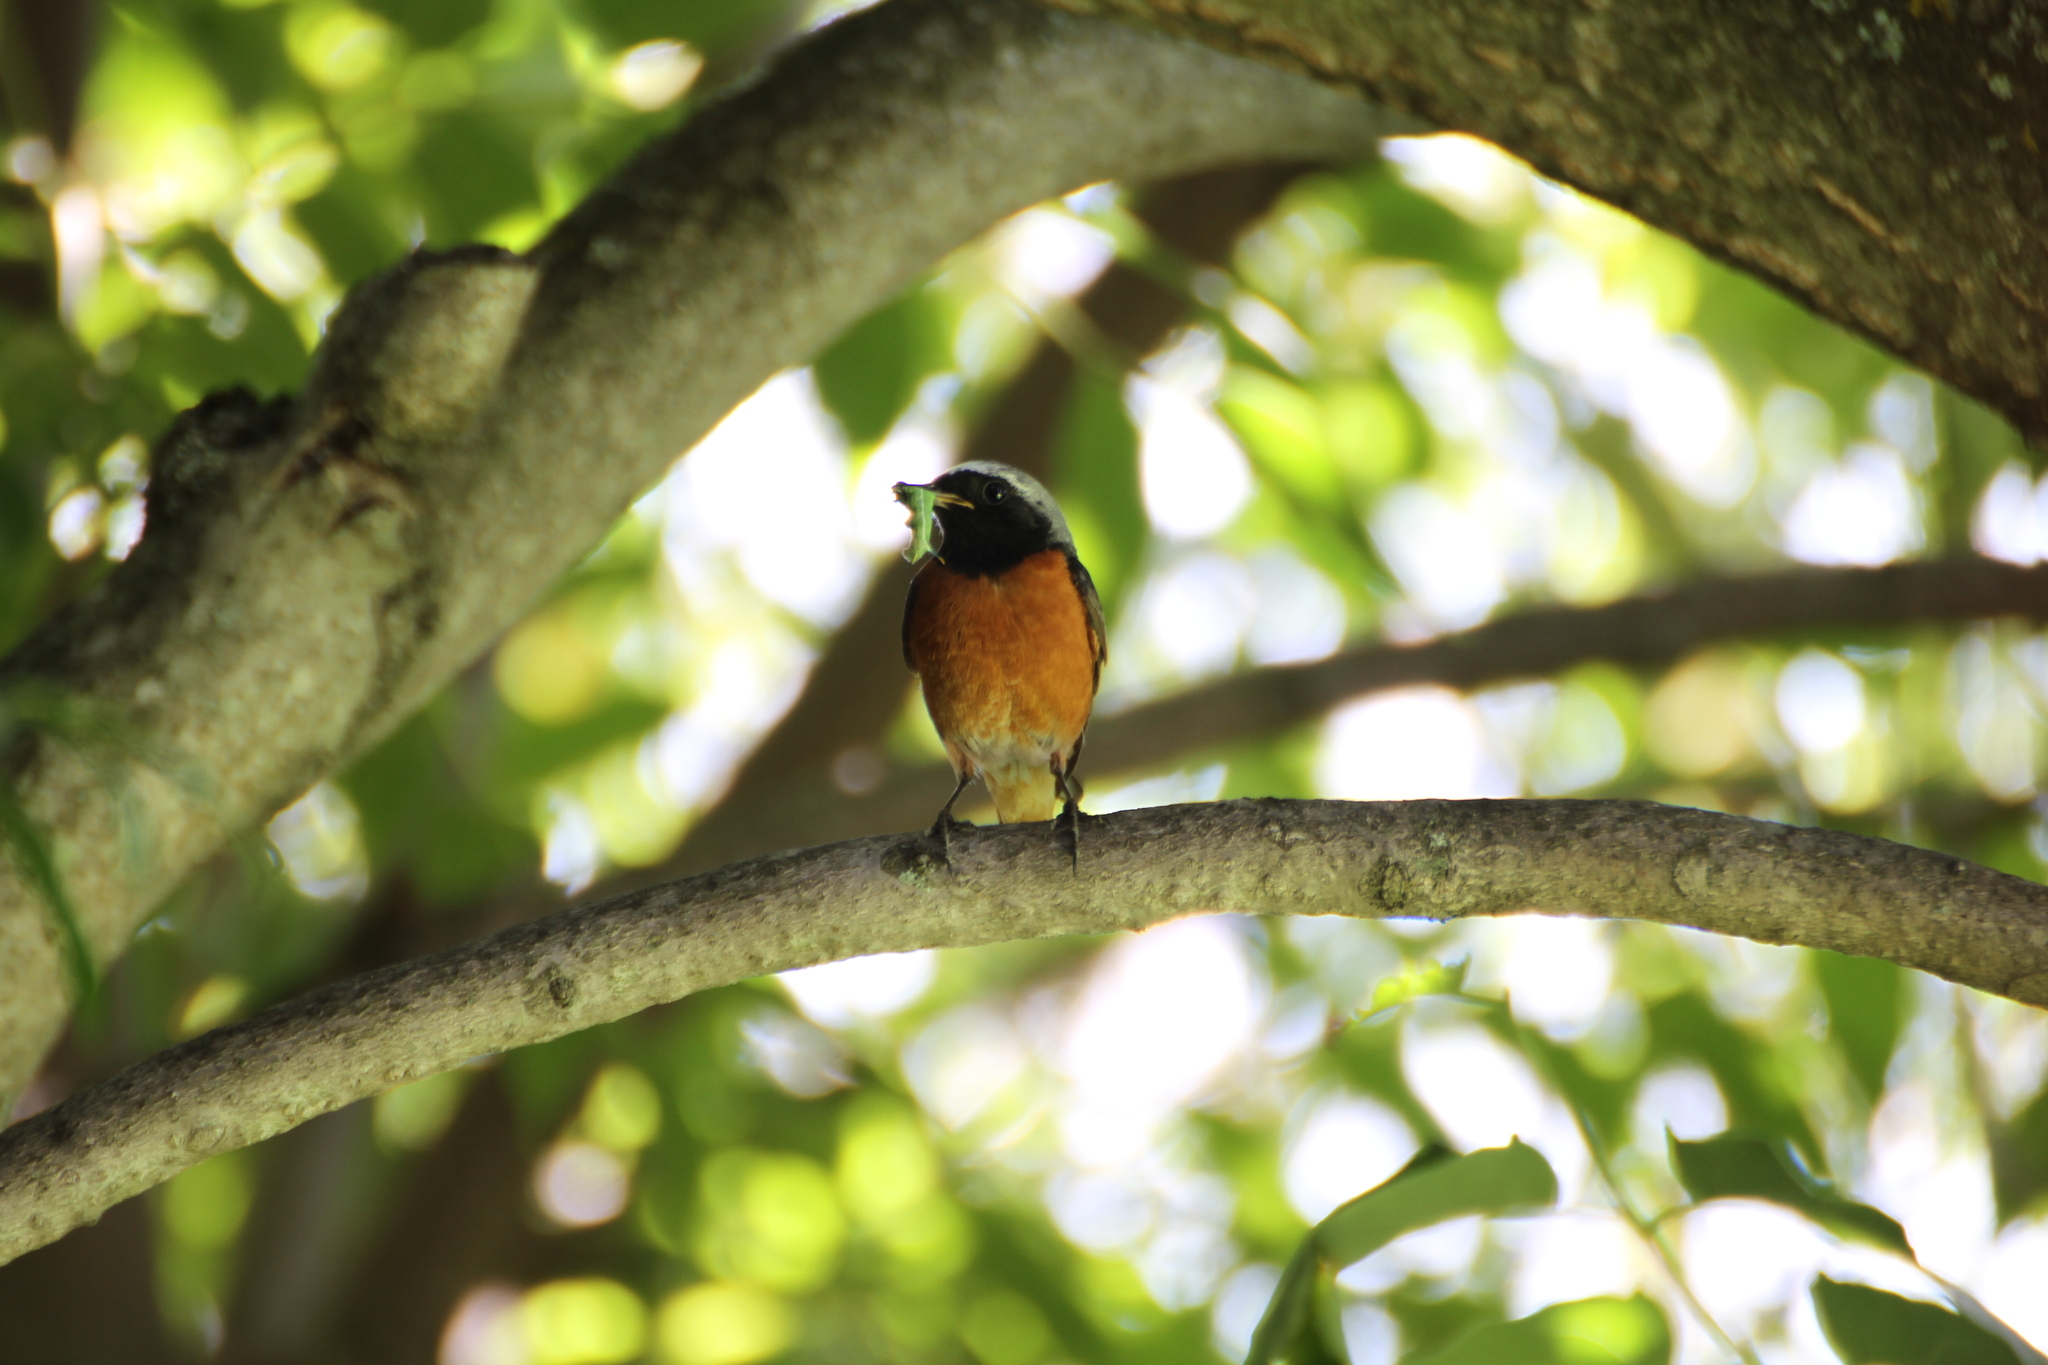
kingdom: Animalia
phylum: Chordata
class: Aves
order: Passeriformes
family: Muscicapidae
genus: Phoenicurus
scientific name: Phoenicurus phoenicurus
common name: Common redstart
